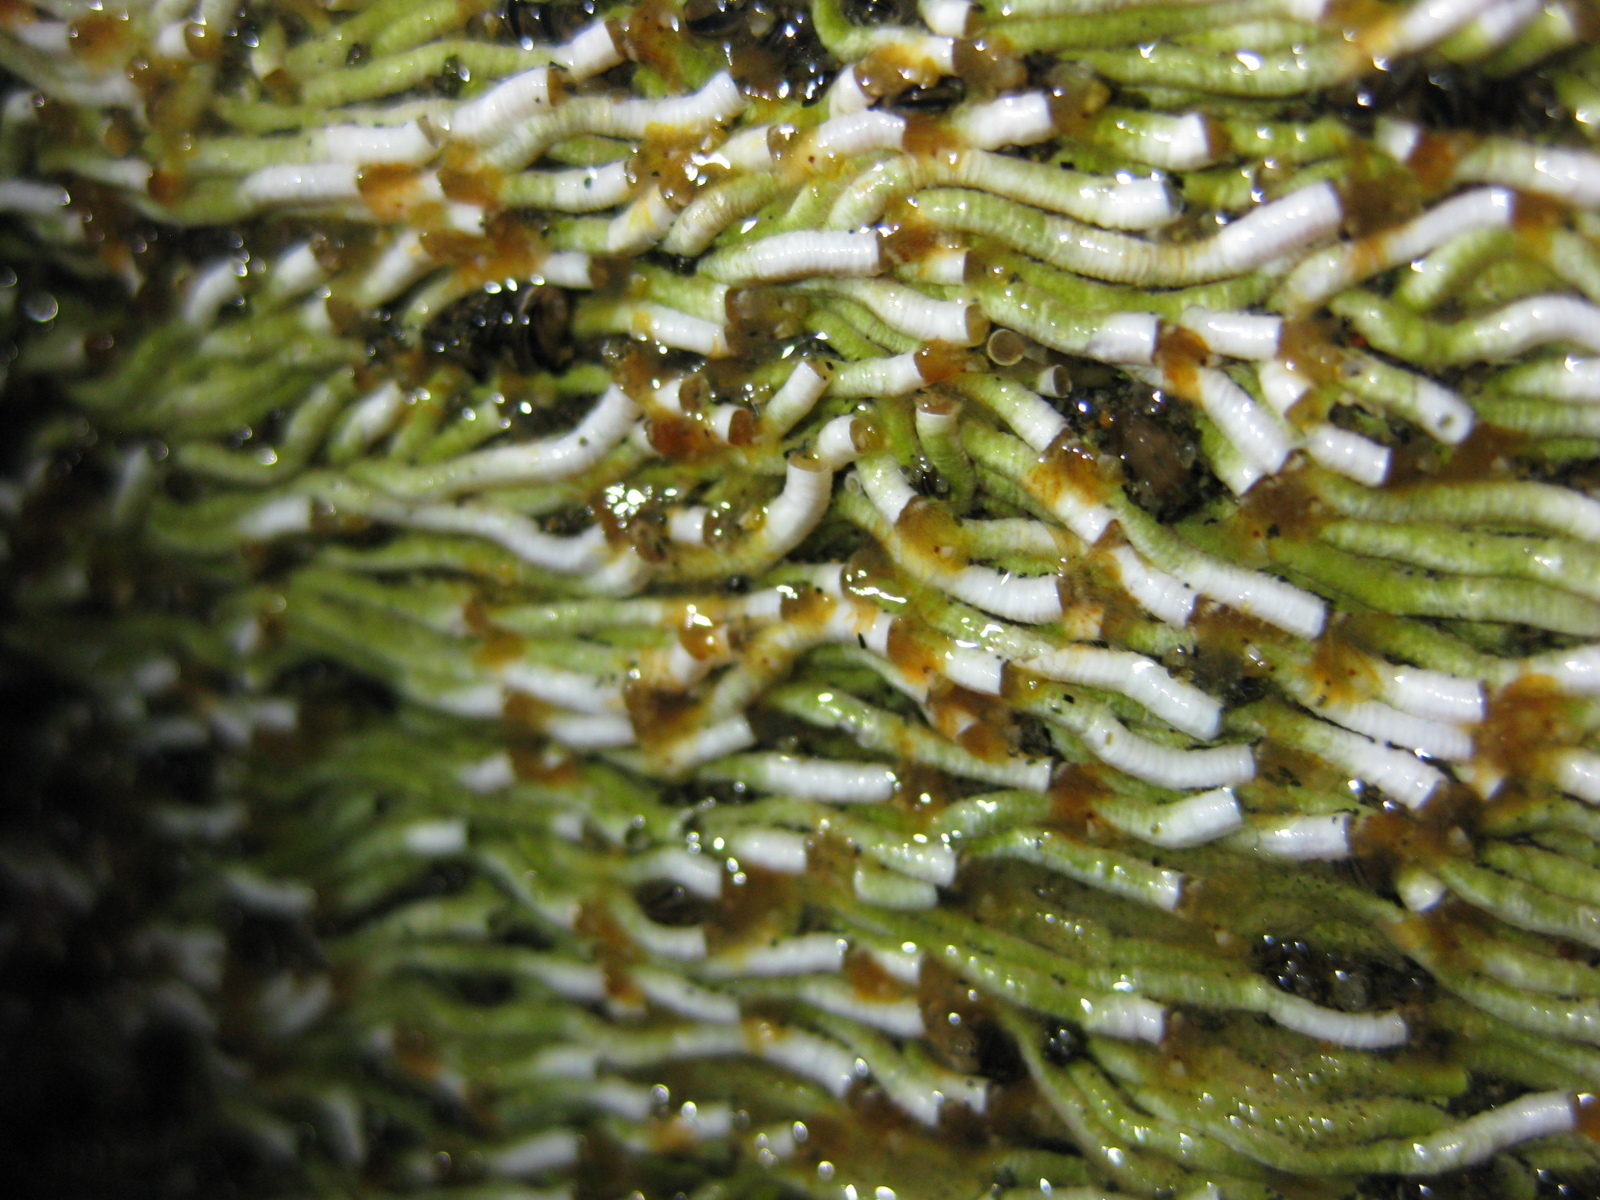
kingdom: Animalia
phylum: Annelida
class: Polychaeta
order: Sabellida
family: Serpulidae
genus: Salmacina
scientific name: Salmacina australis
